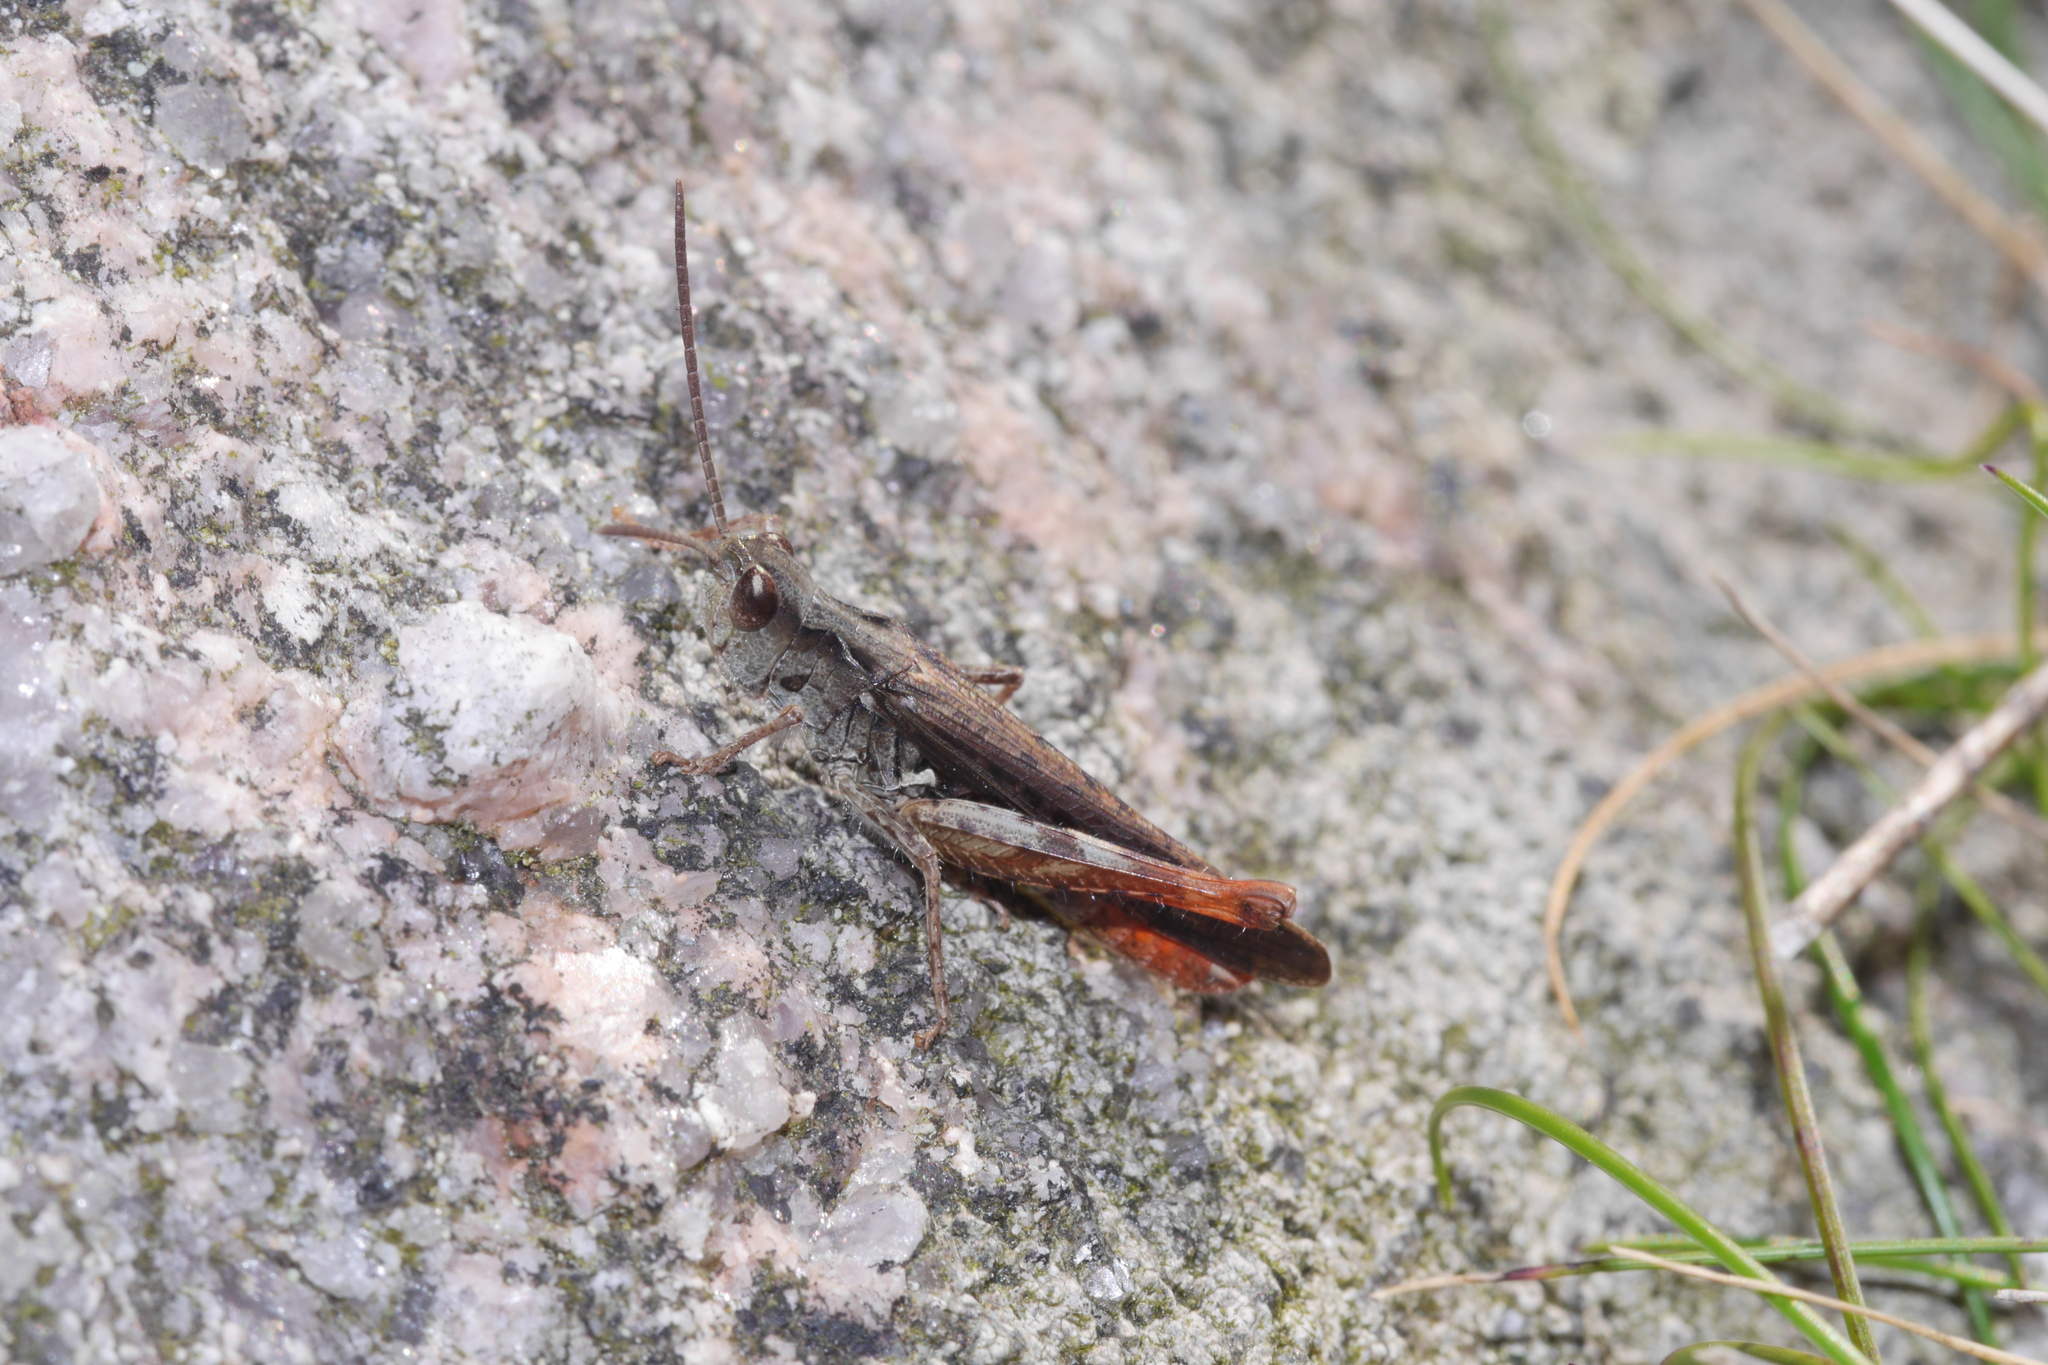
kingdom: Animalia
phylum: Arthropoda
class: Insecta
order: Orthoptera
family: Acrididae
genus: Chorthippus
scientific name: Chorthippus brunneus
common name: Field grasshopper
